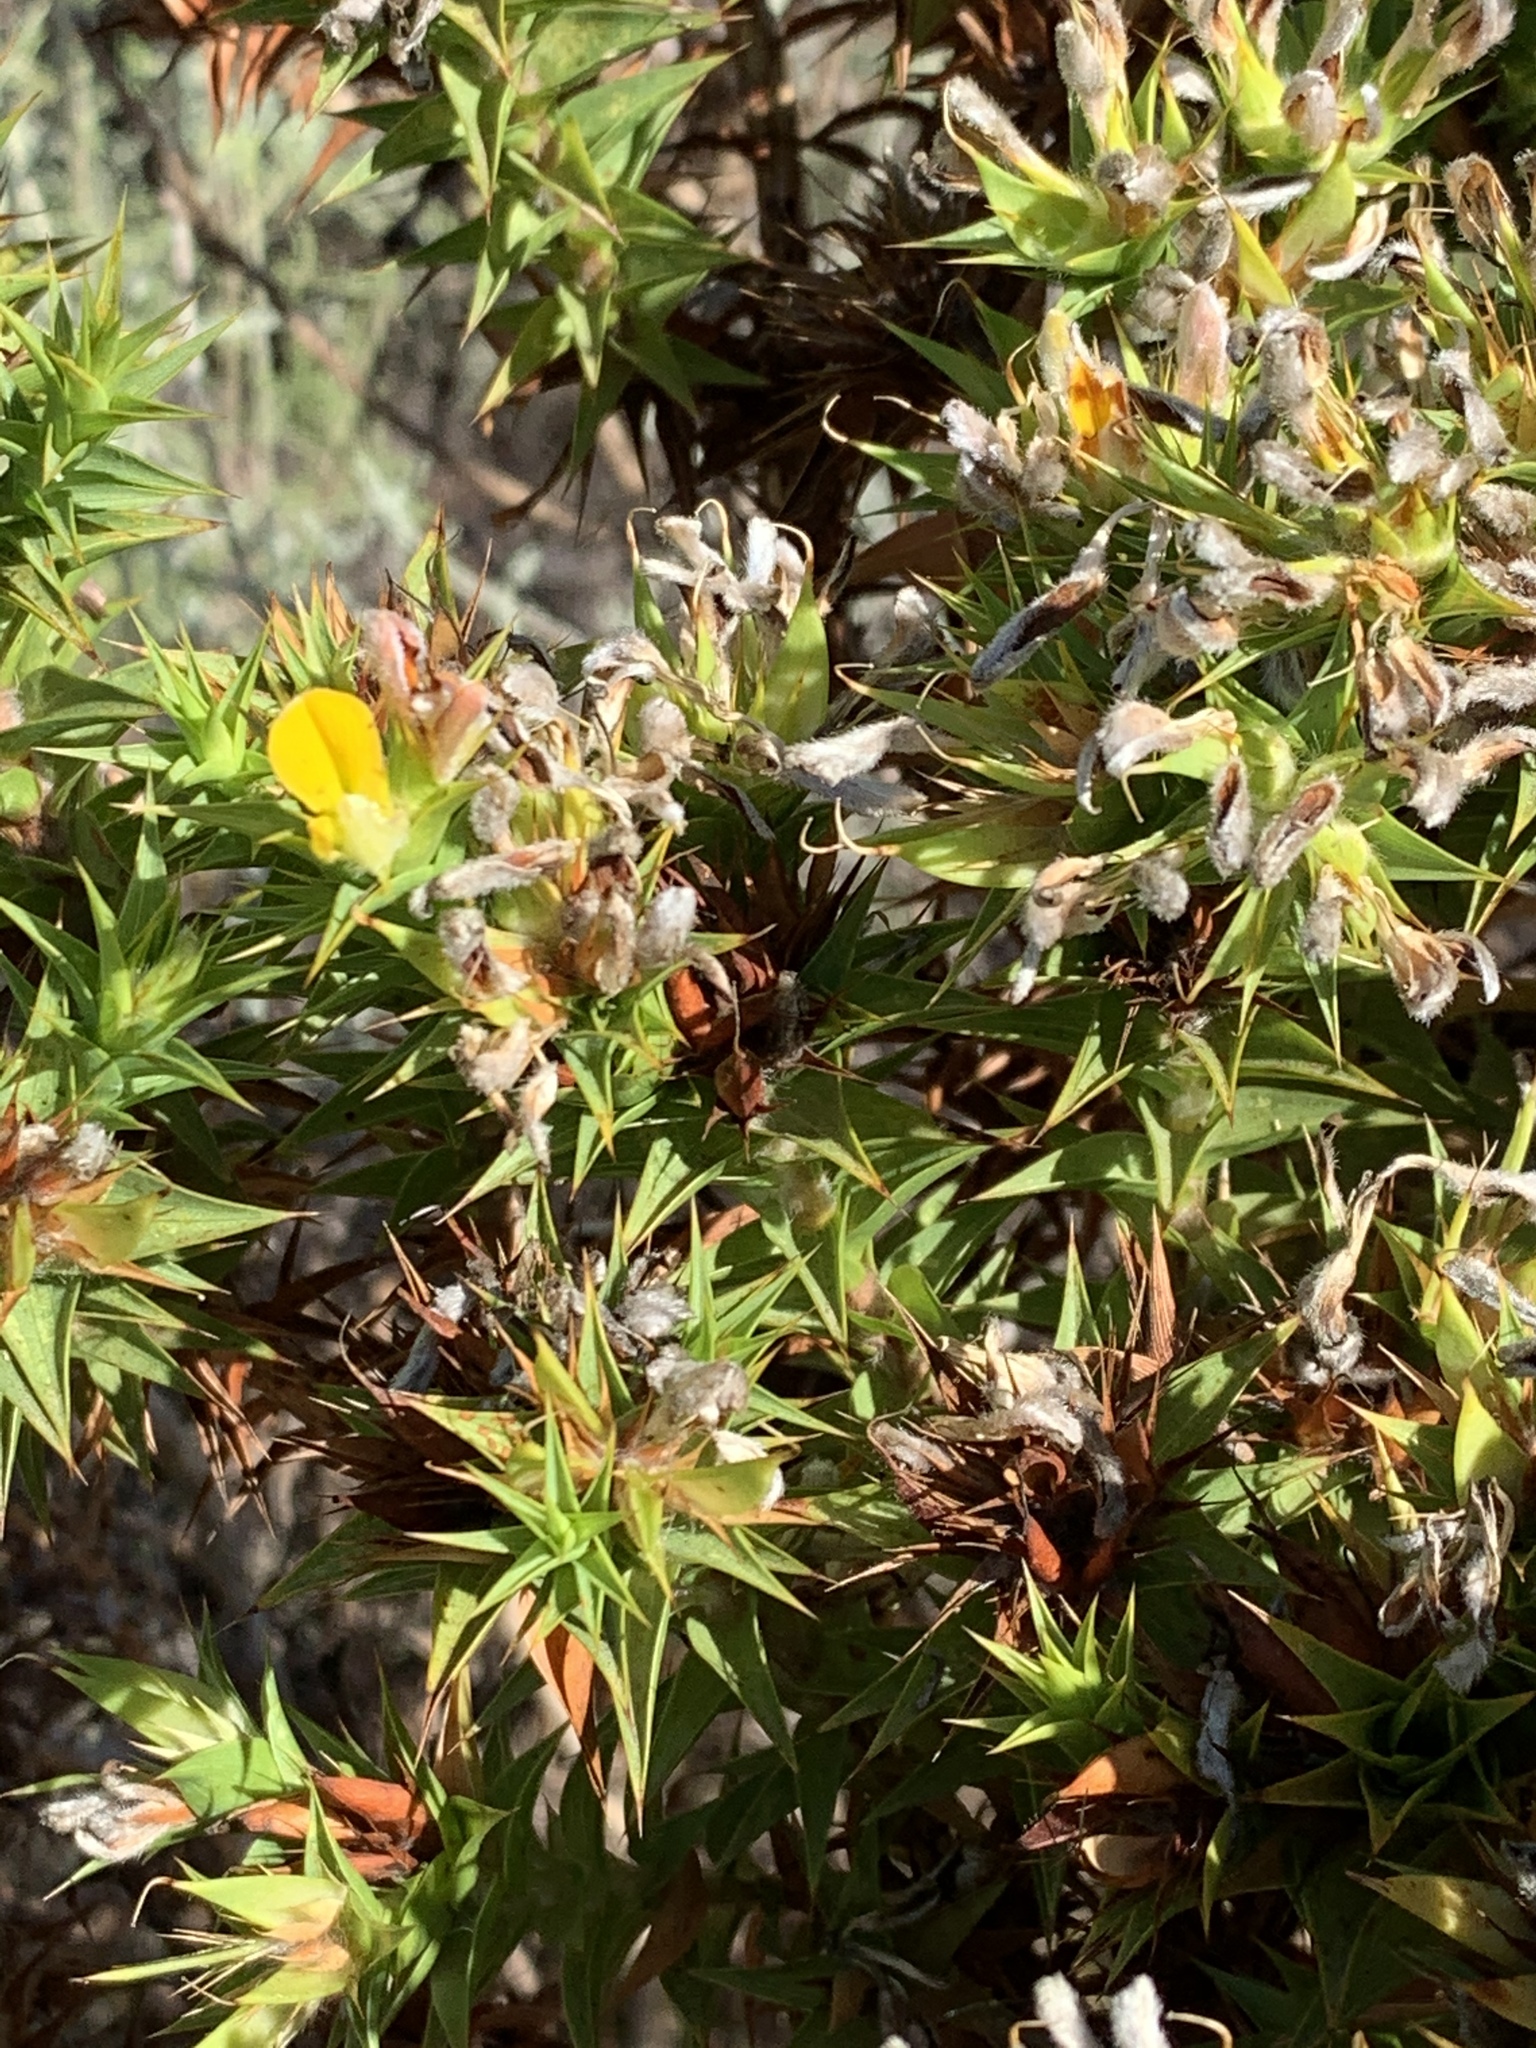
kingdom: Plantae
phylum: Tracheophyta
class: Magnoliopsida
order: Fabales
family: Fabaceae
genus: Aspalathus
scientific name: Aspalathus cordata
